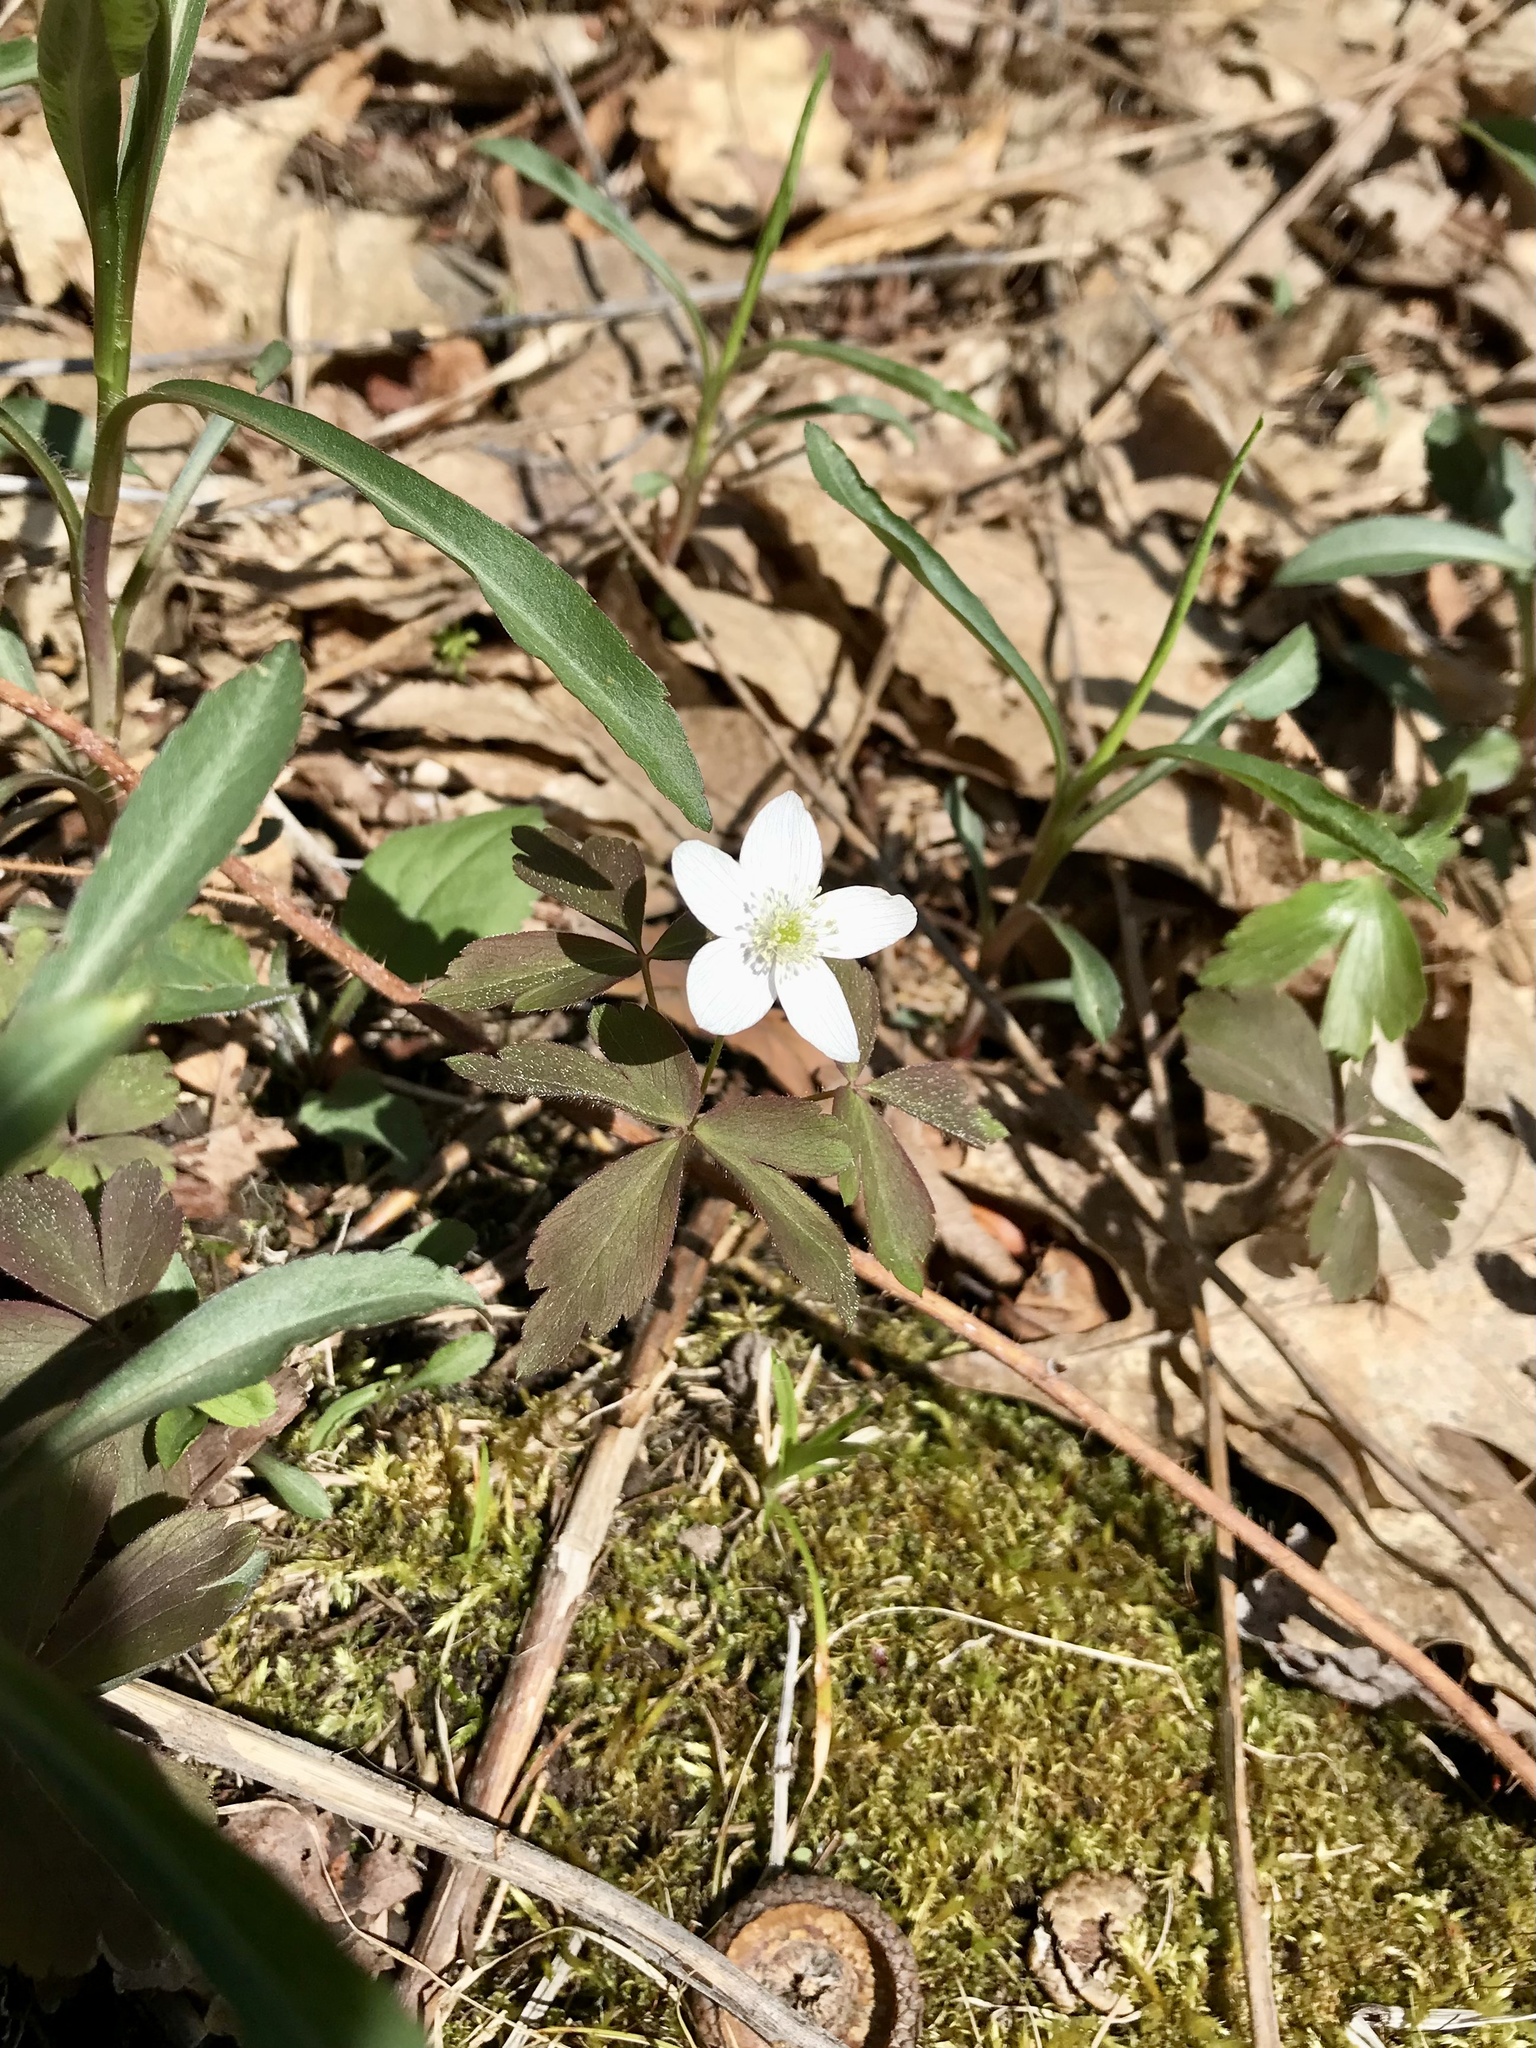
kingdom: Plantae
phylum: Tracheophyta
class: Magnoliopsida
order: Ranunculales
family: Ranunculaceae
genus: Anemone
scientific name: Anemone quinquefolia
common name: Wood anemone
